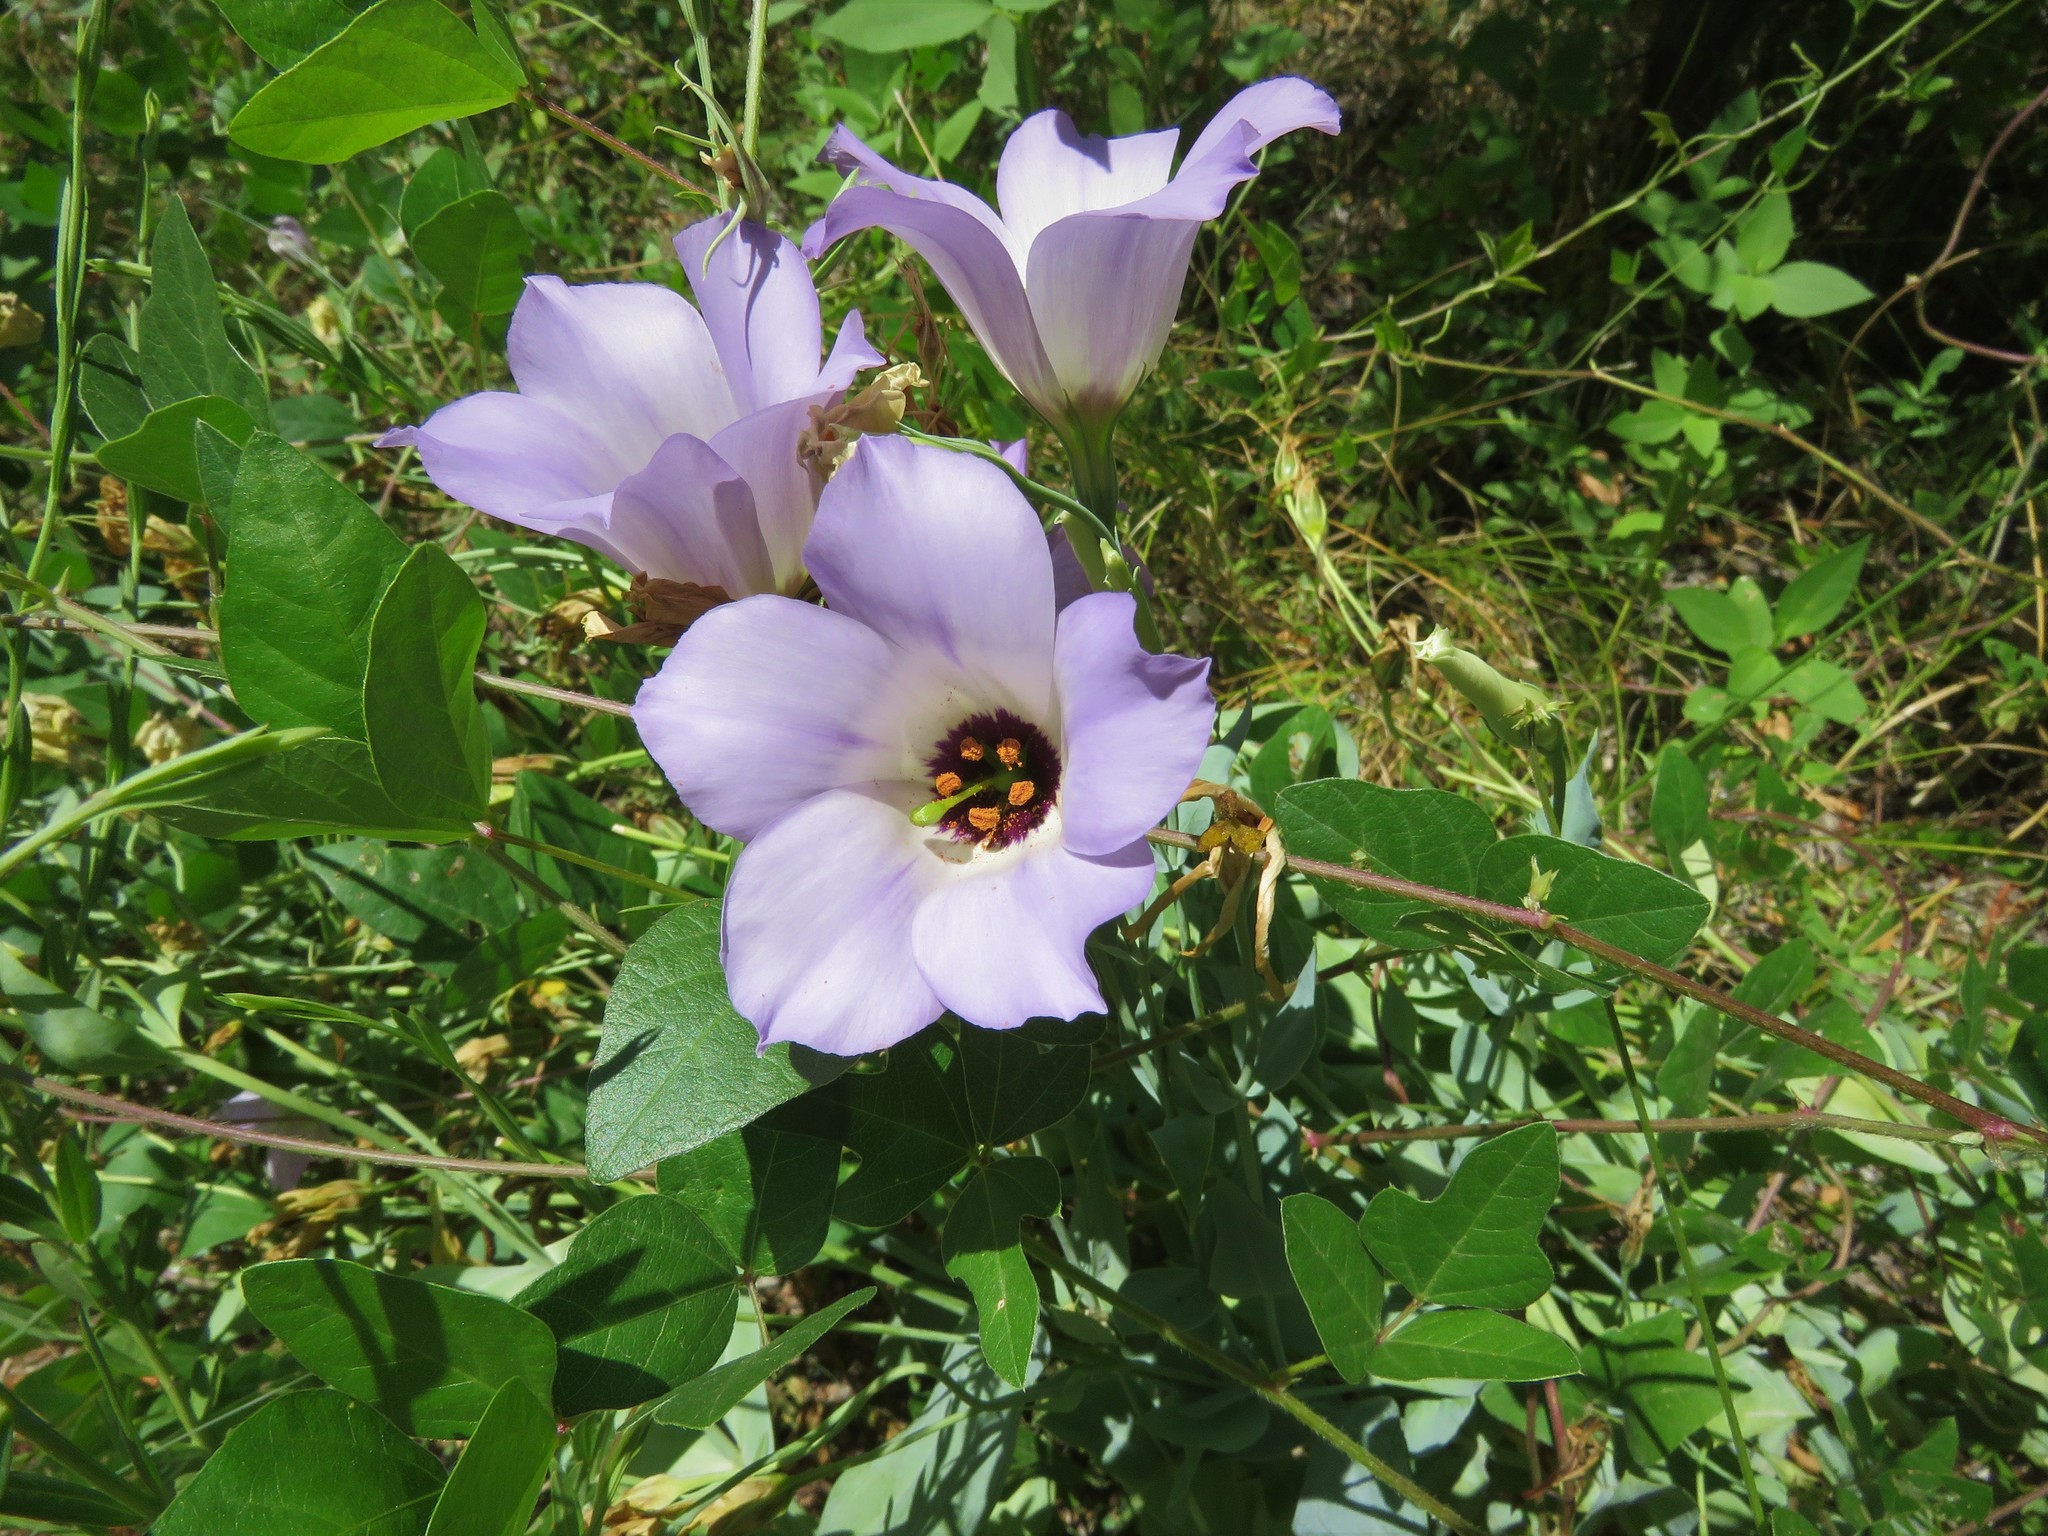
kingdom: Plantae
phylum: Tracheophyta
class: Magnoliopsida
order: Gentianales
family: Gentianaceae
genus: Eustoma
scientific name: Eustoma russellianum
